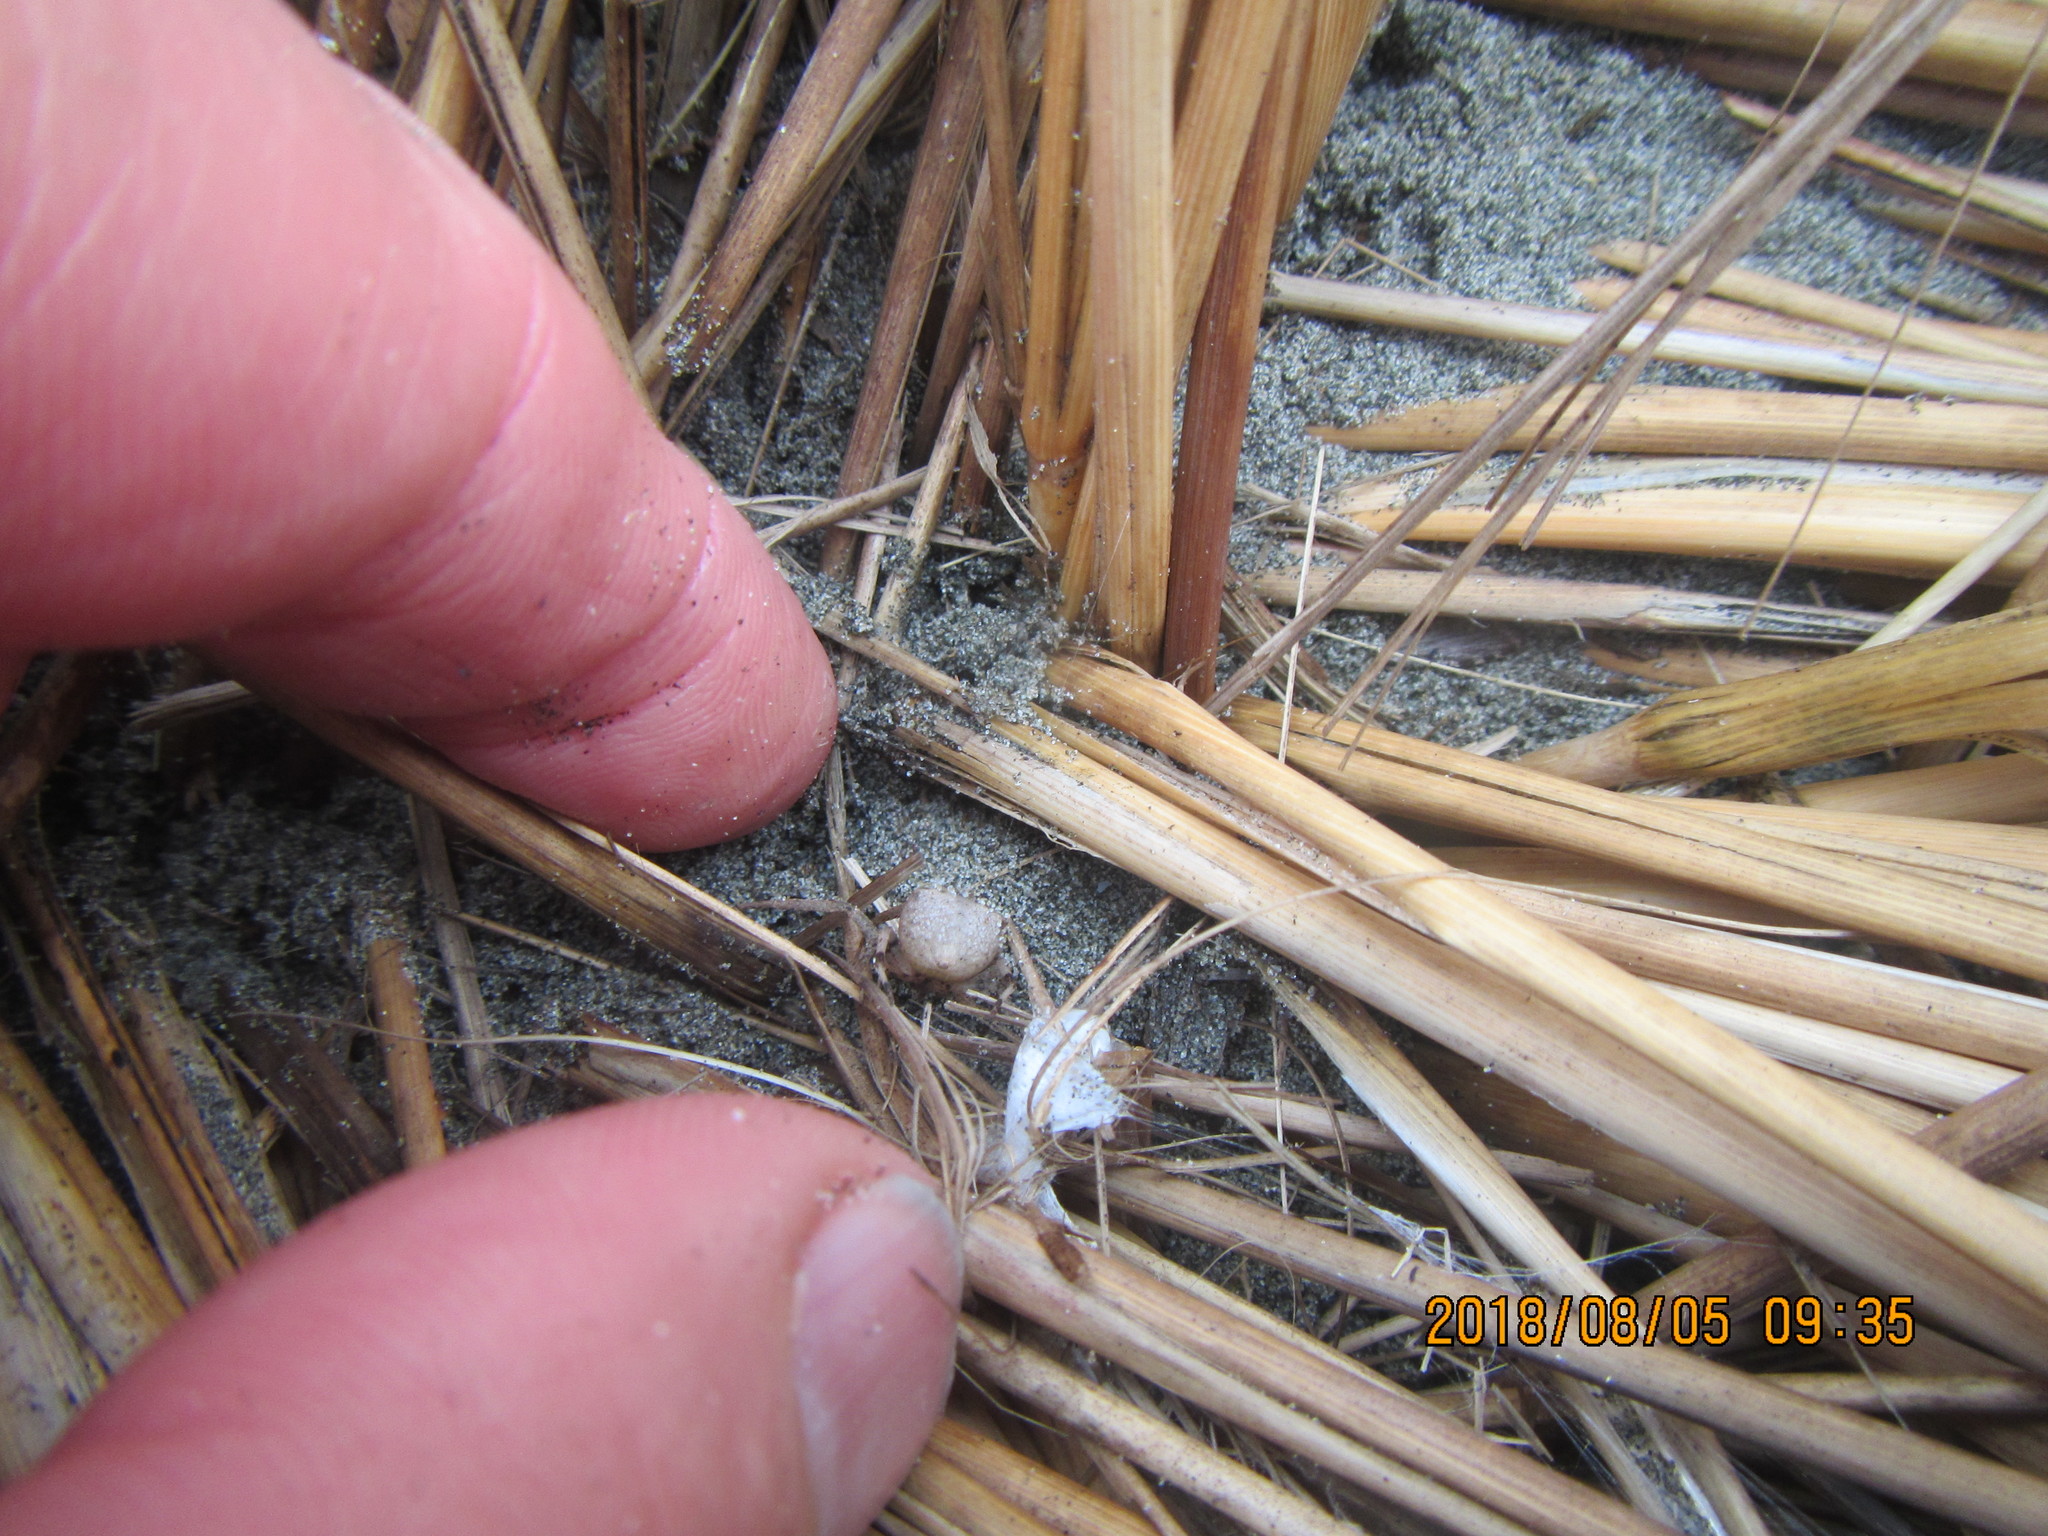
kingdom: Animalia
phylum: Arthropoda
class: Arachnida
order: Araneae
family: Thomisidae
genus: Sidymella
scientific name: Sidymella trapezia
